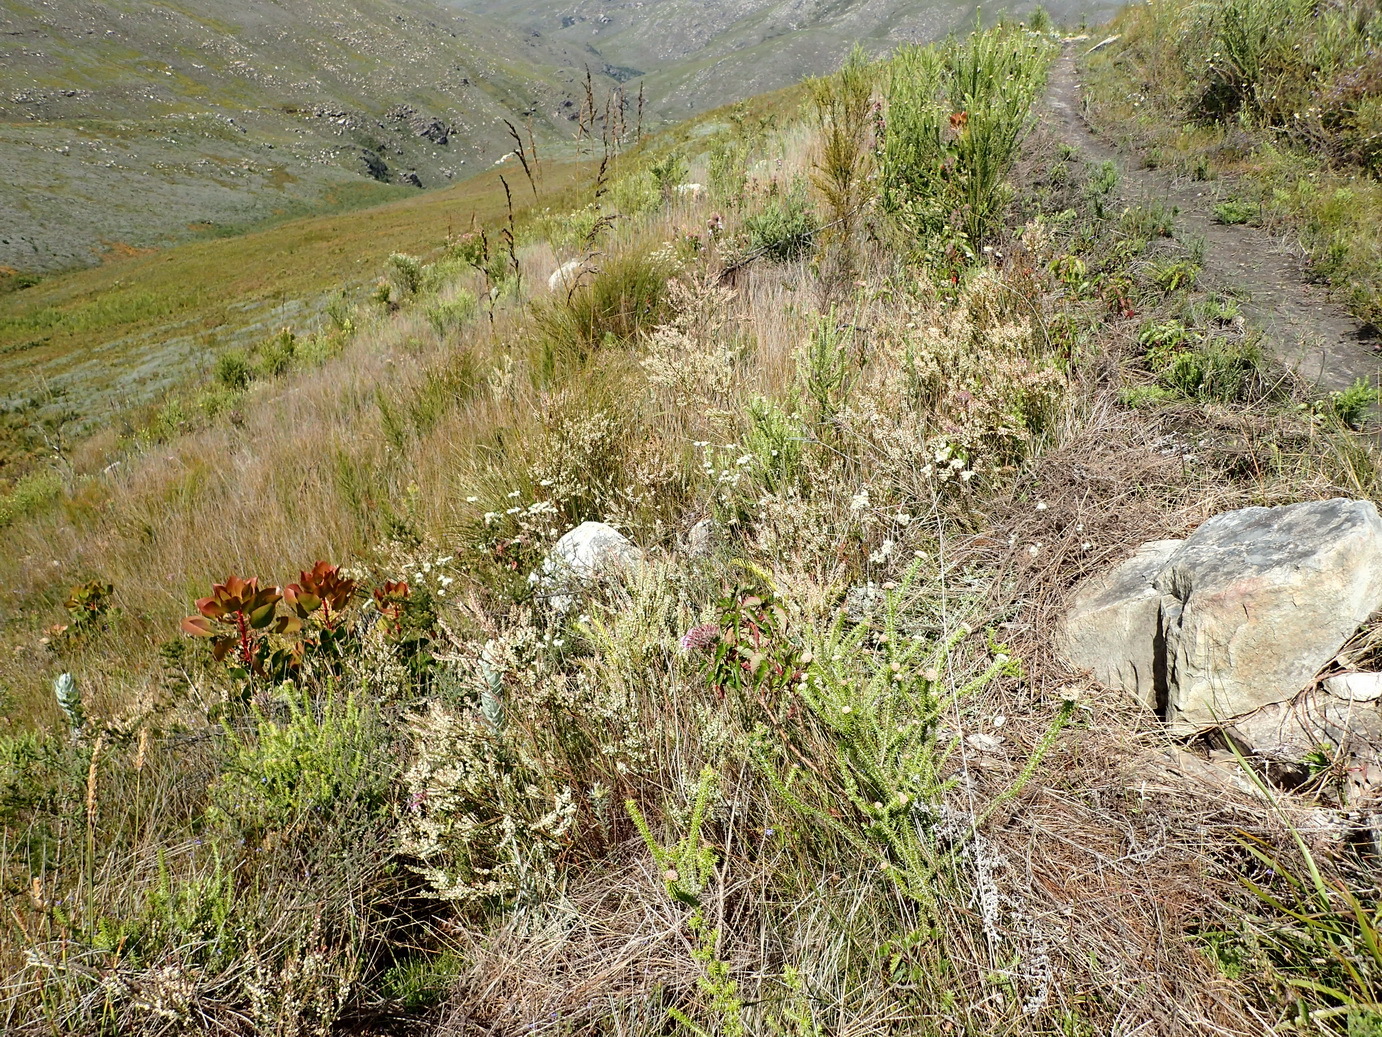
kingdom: Plantae
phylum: Tracheophyta
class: Magnoliopsida
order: Malvales
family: Thymelaeaceae
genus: Struthiola
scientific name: Struthiola dodecandra
